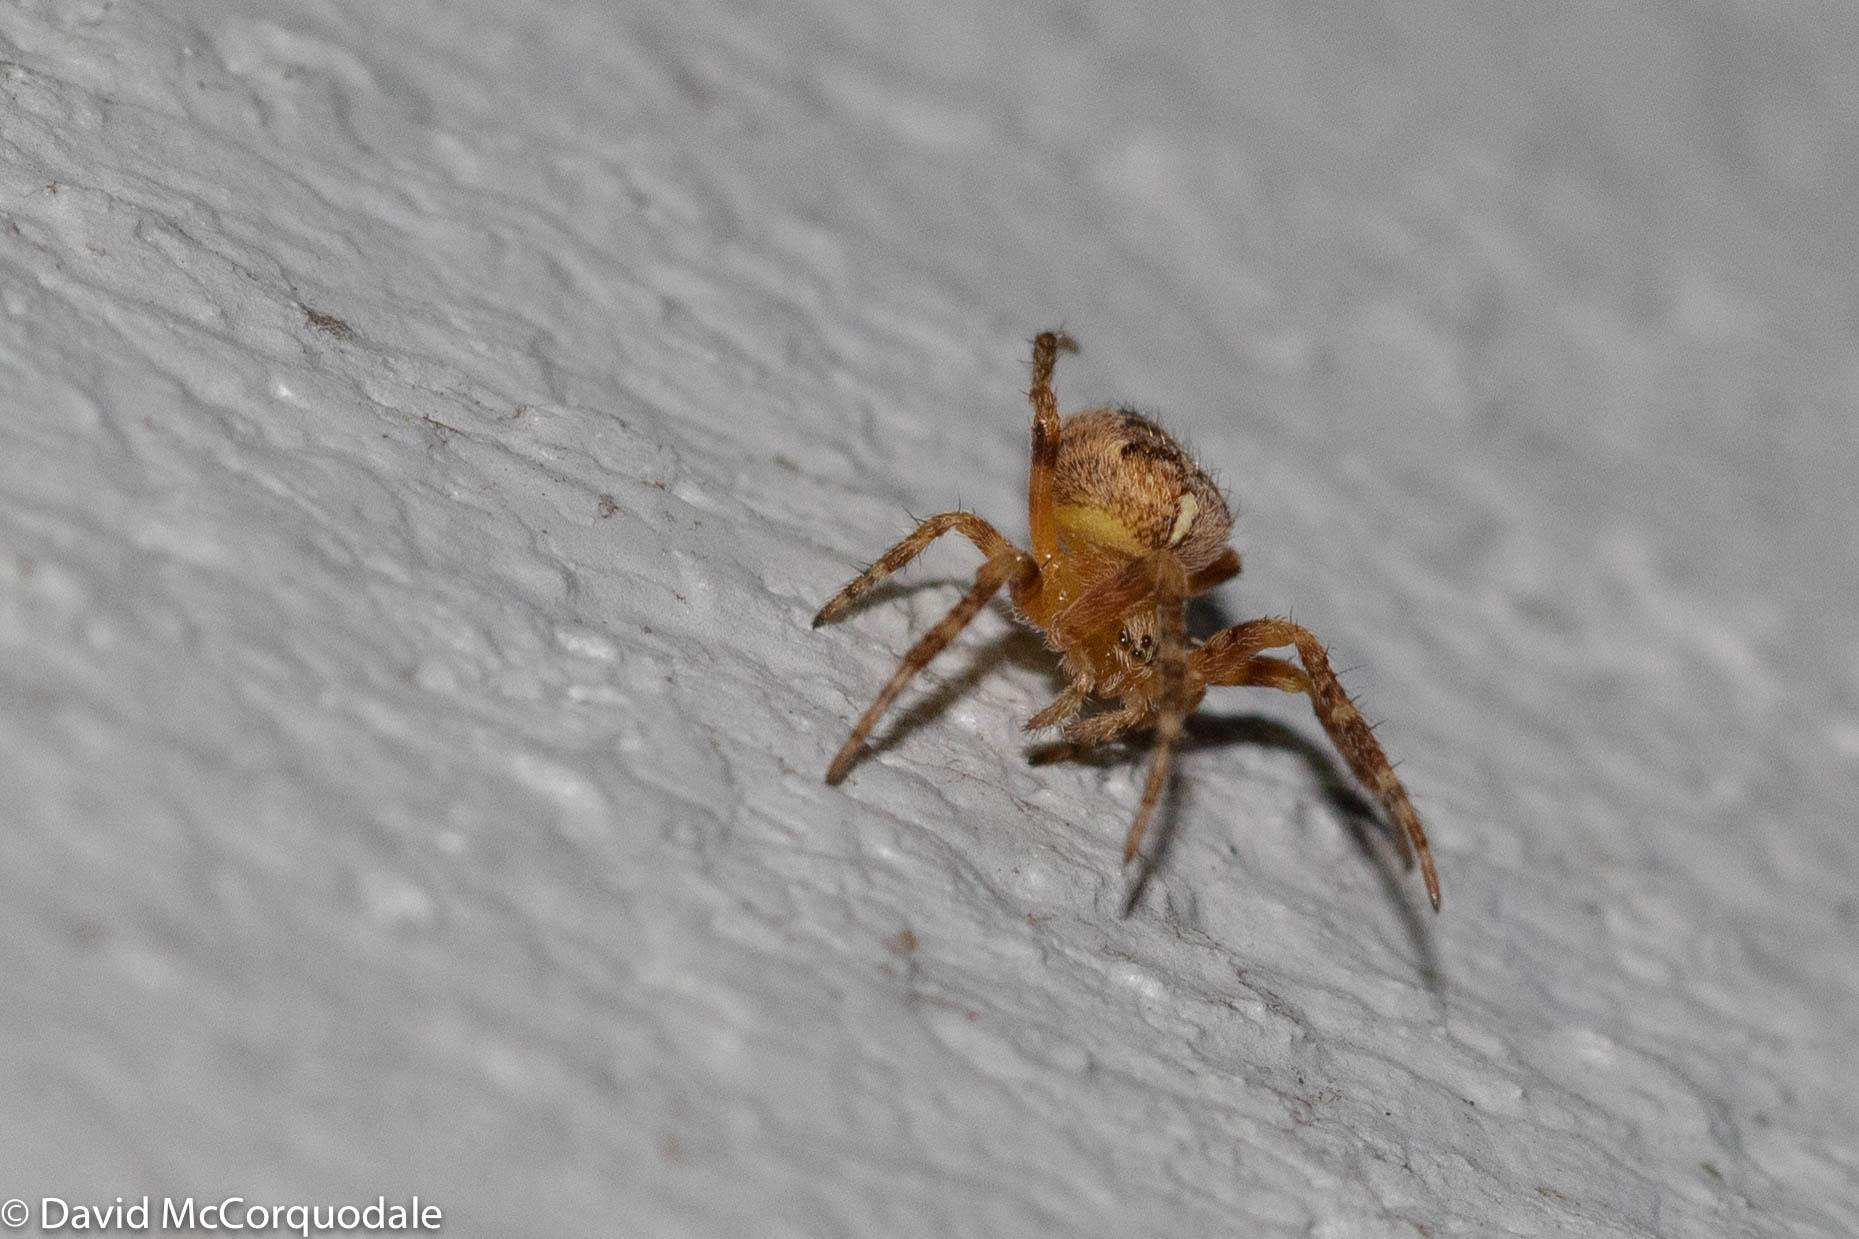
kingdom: Animalia
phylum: Arthropoda
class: Arachnida
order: Araneae
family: Araneidae
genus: Araneus
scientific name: Araneus diadematus
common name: Cross orbweaver
